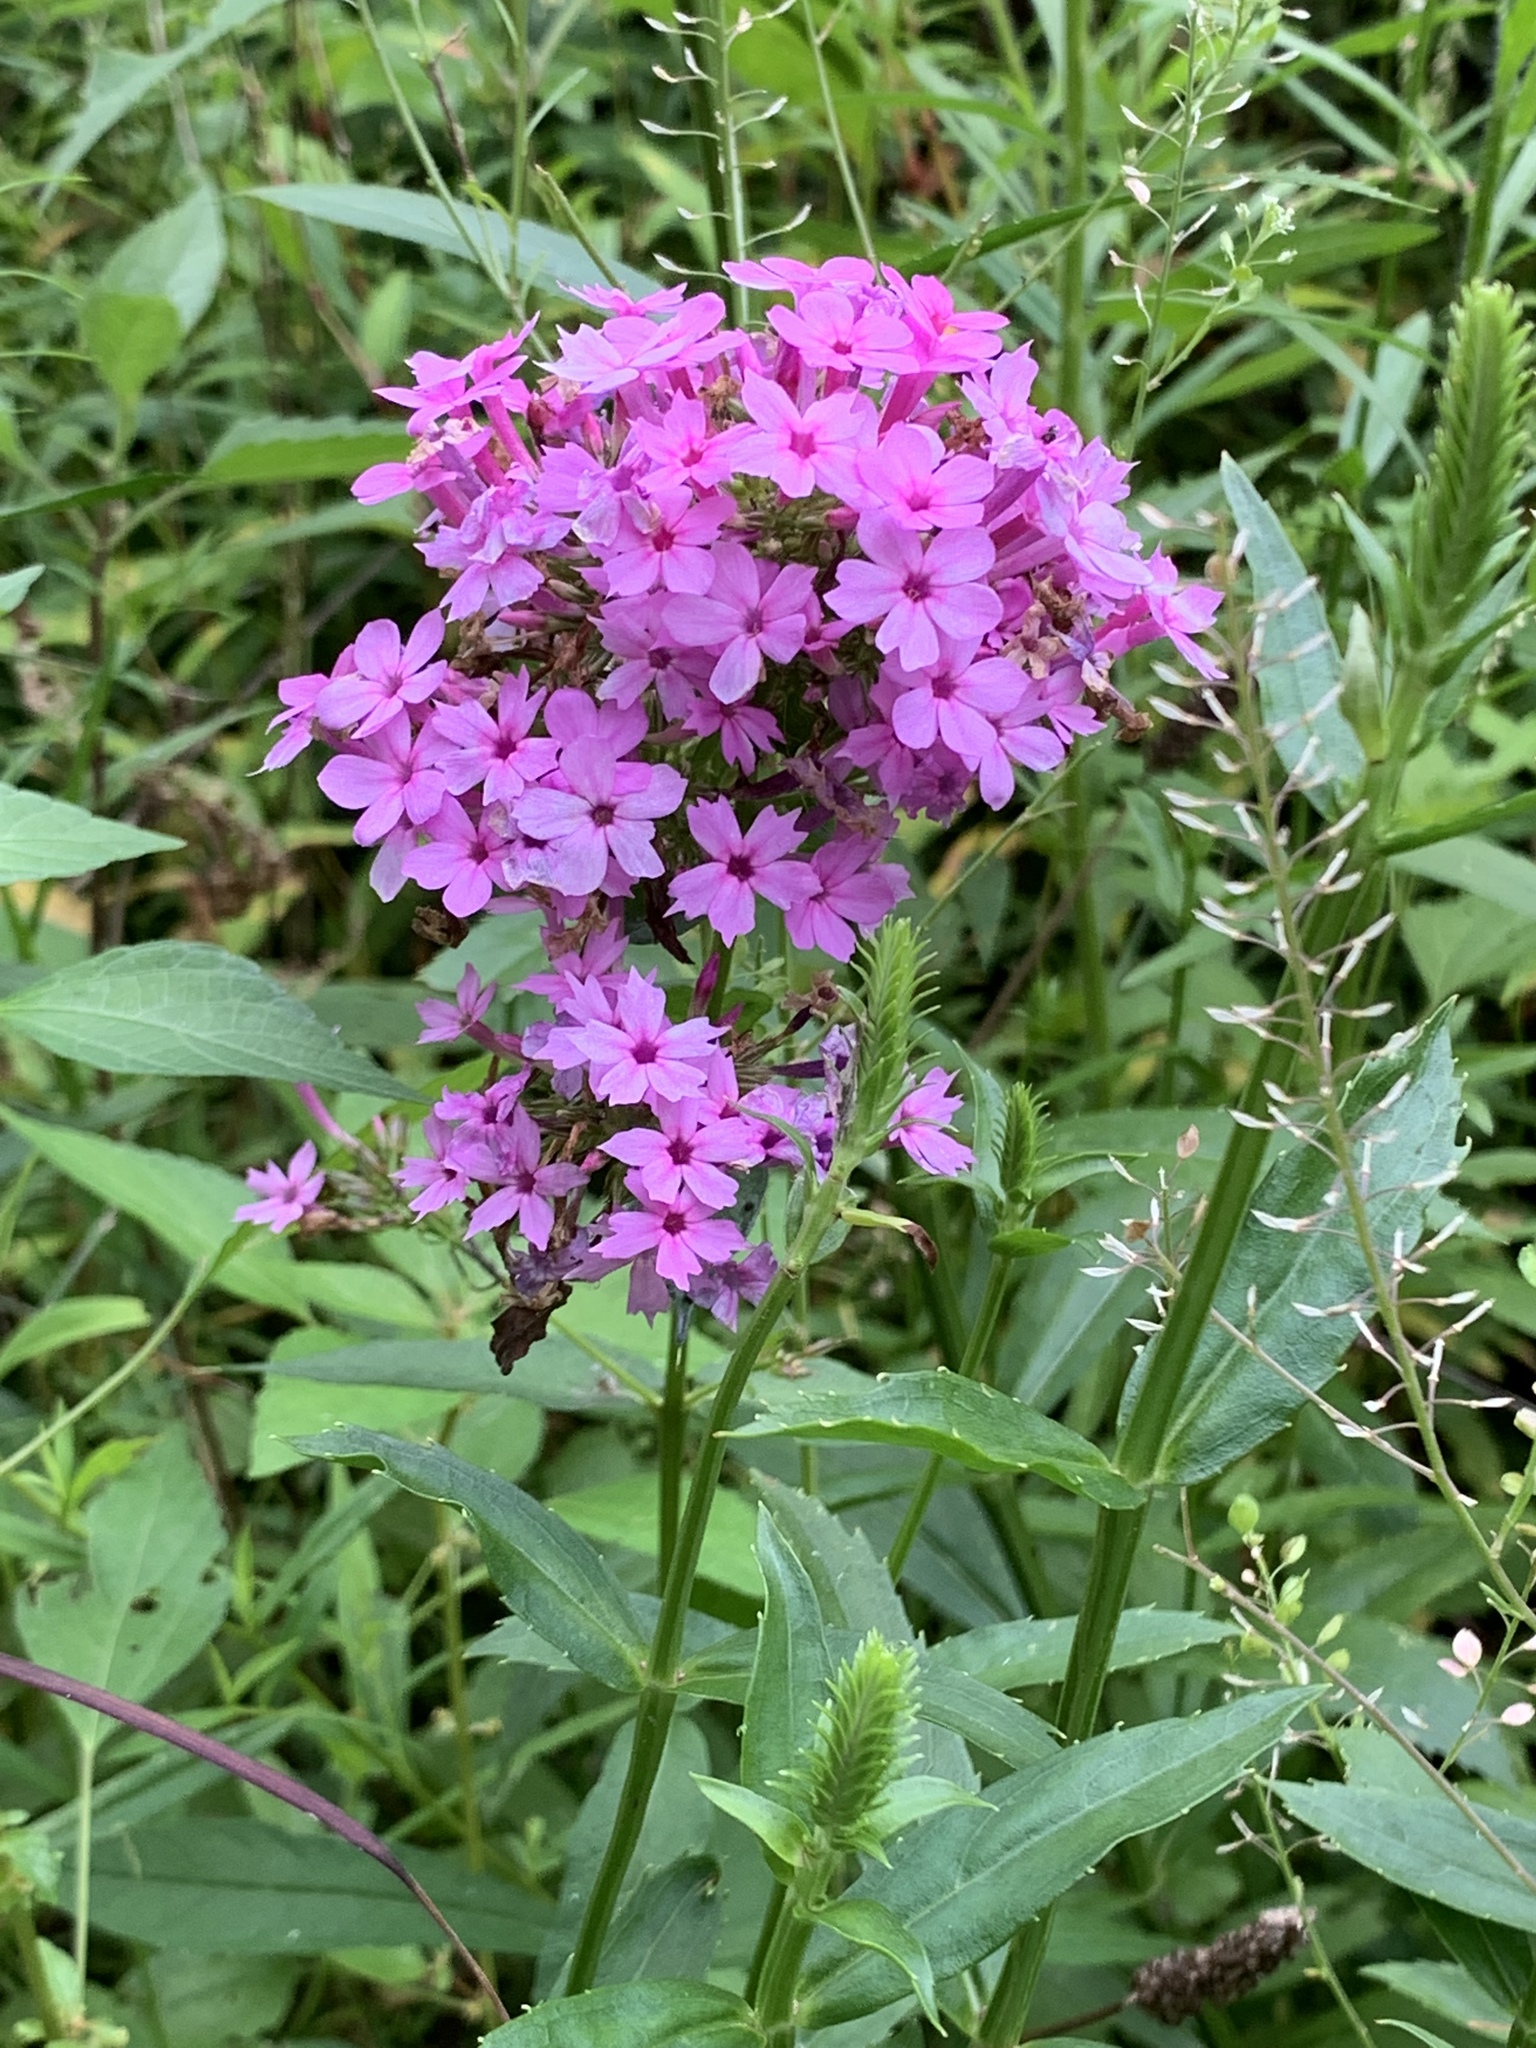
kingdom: Plantae
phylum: Tracheophyta
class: Magnoliopsida
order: Ericales
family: Polemoniaceae
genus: Phlox
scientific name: Phlox paniculata
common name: Fall phlox
